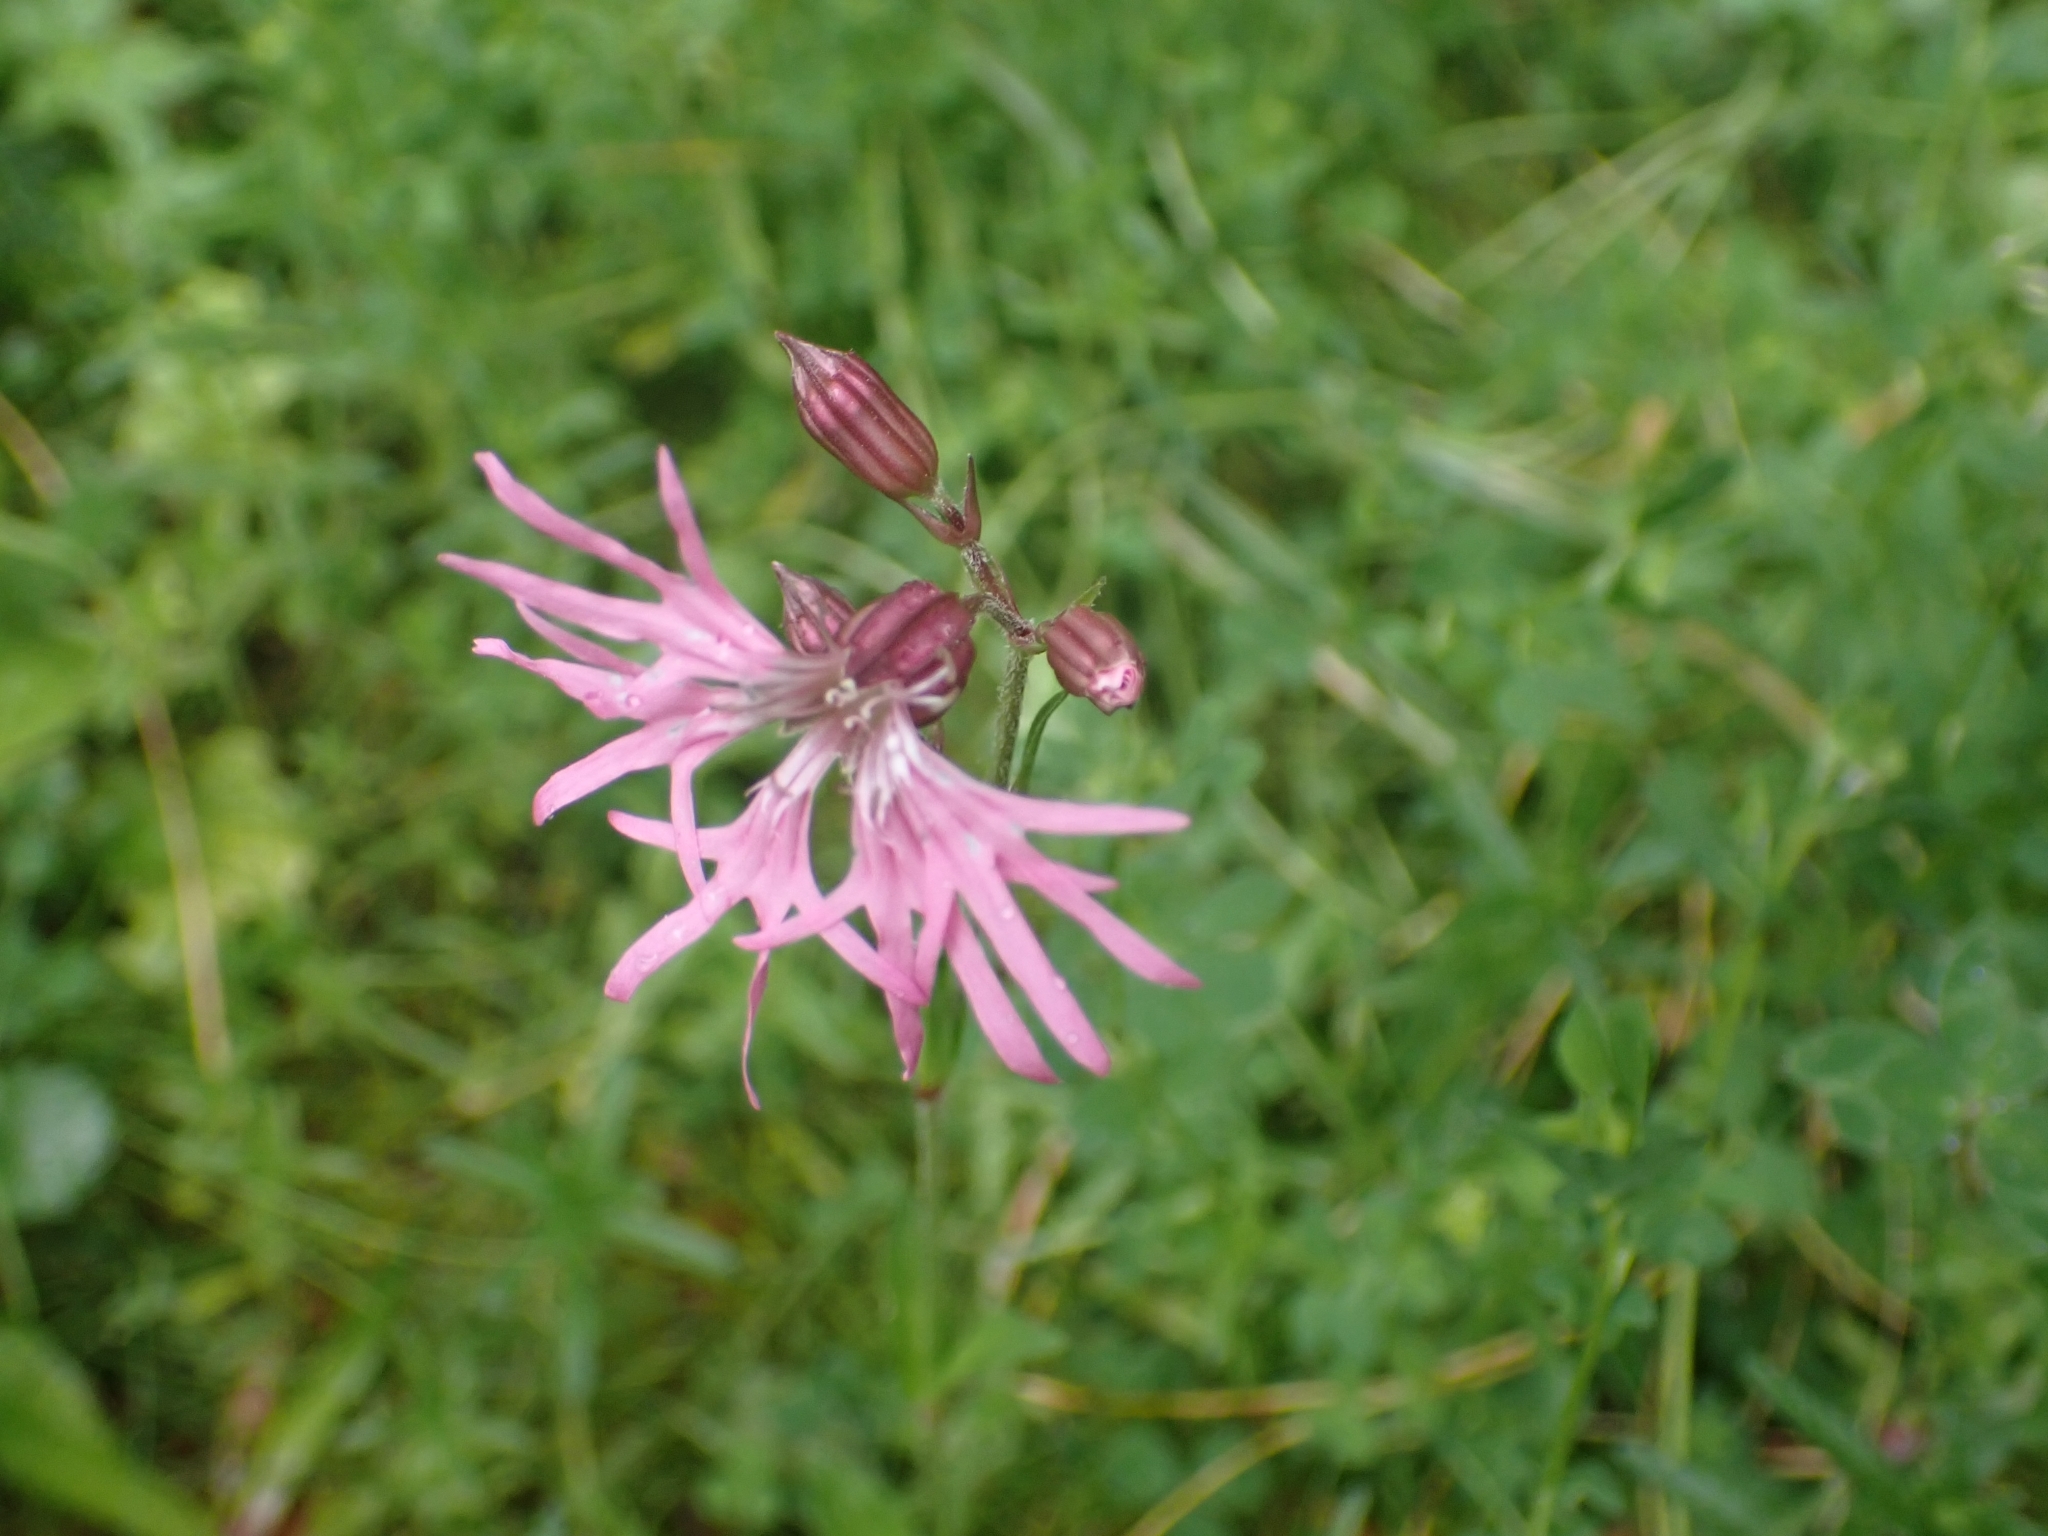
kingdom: Plantae
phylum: Tracheophyta
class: Magnoliopsida
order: Caryophyllales
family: Caryophyllaceae
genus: Silene
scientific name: Silene flos-cuculi
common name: Ragged-robin
